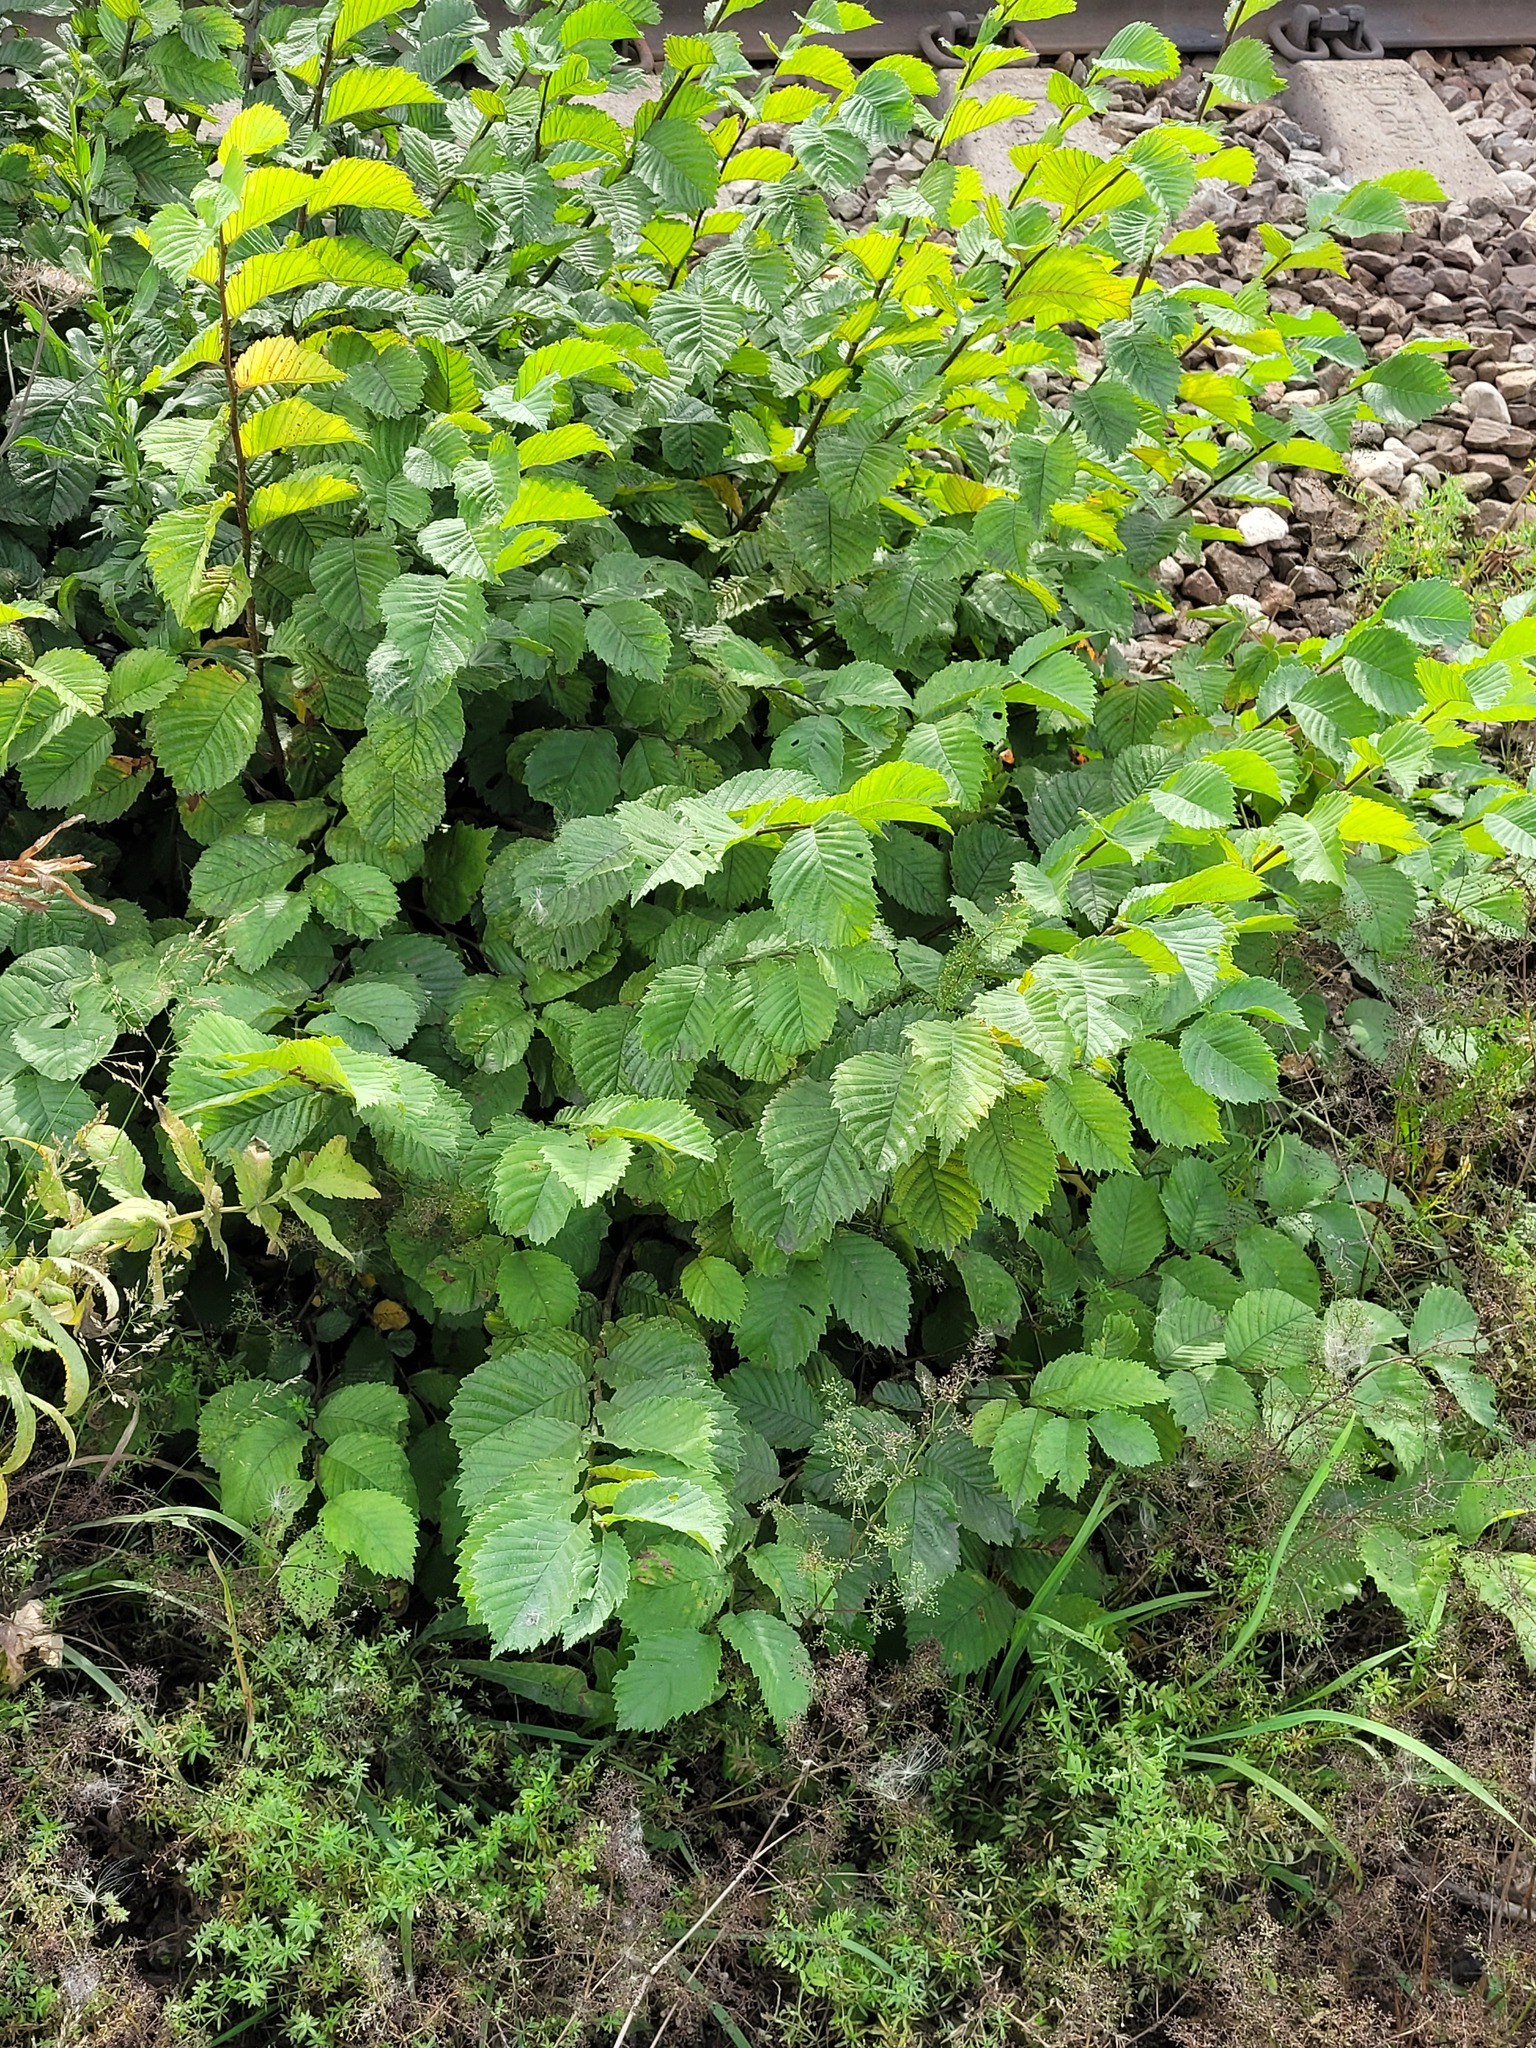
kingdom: Plantae
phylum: Tracheophyta
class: Magnoliopsida
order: Rosales
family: Ulmaceae
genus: Ulmus
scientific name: Ulmus laevis
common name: European white-elm
